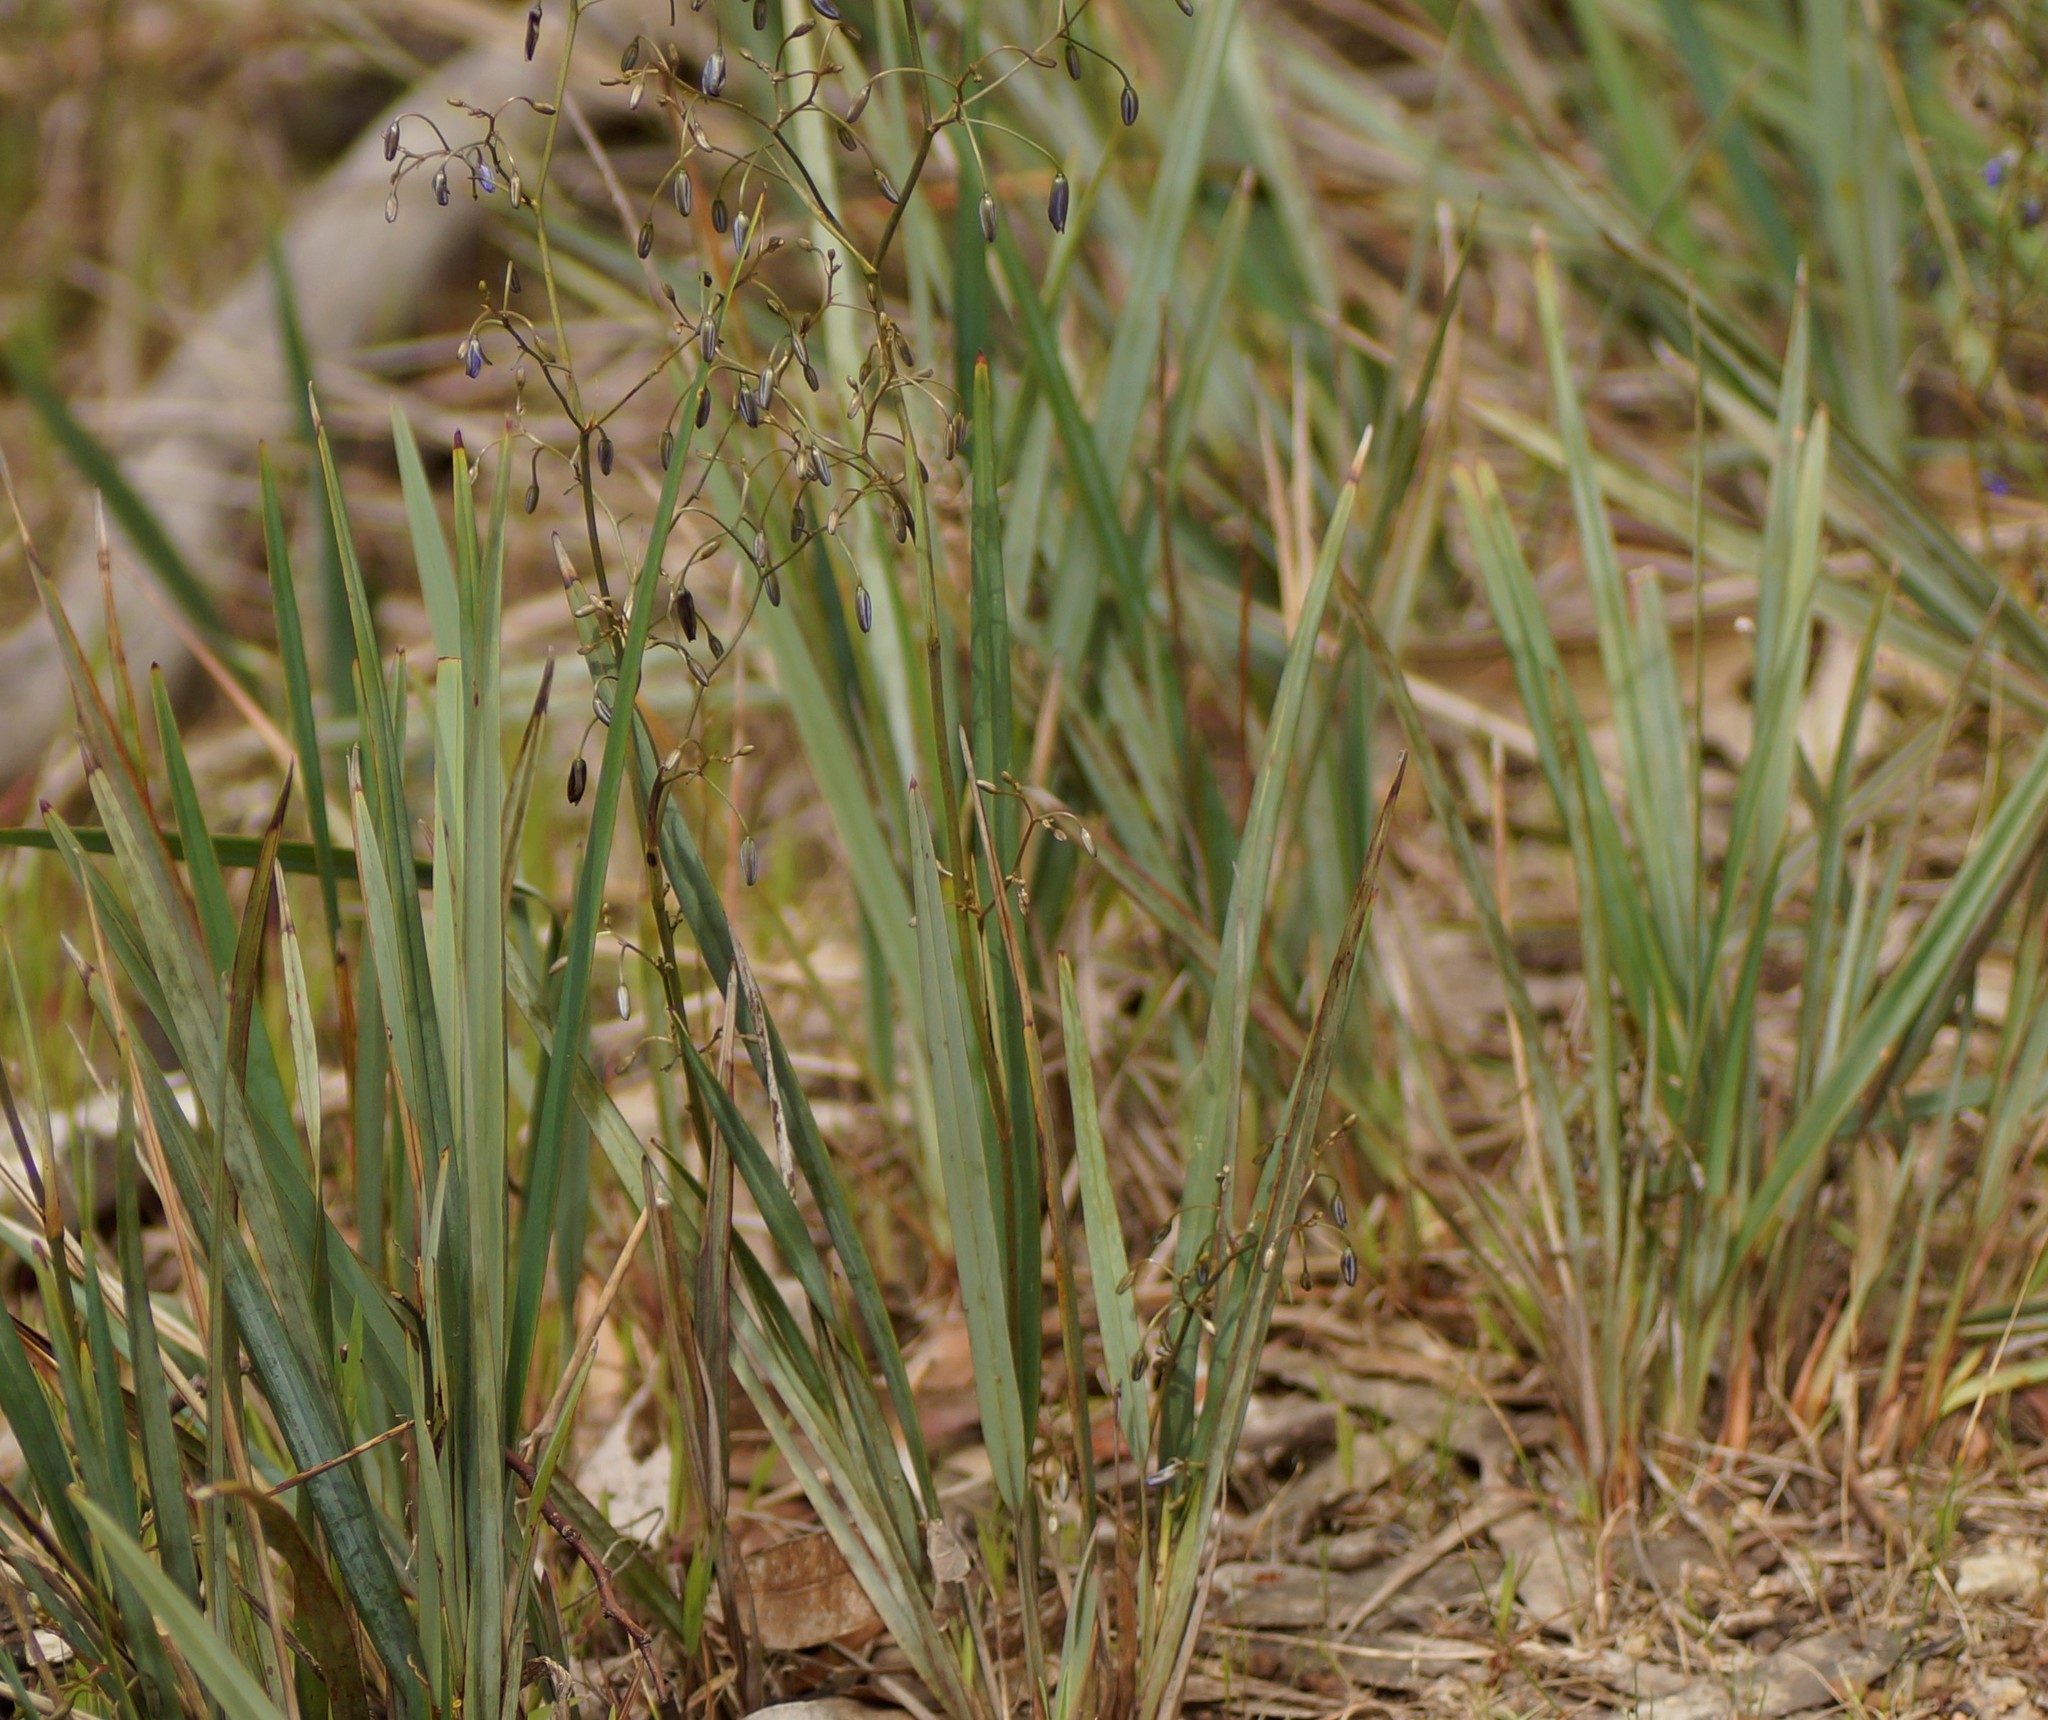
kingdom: Plantae
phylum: Tracheophyta
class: Liliopsida
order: Asparagales
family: Asphodelaceae
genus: Dianella
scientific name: Dianella revoluta
